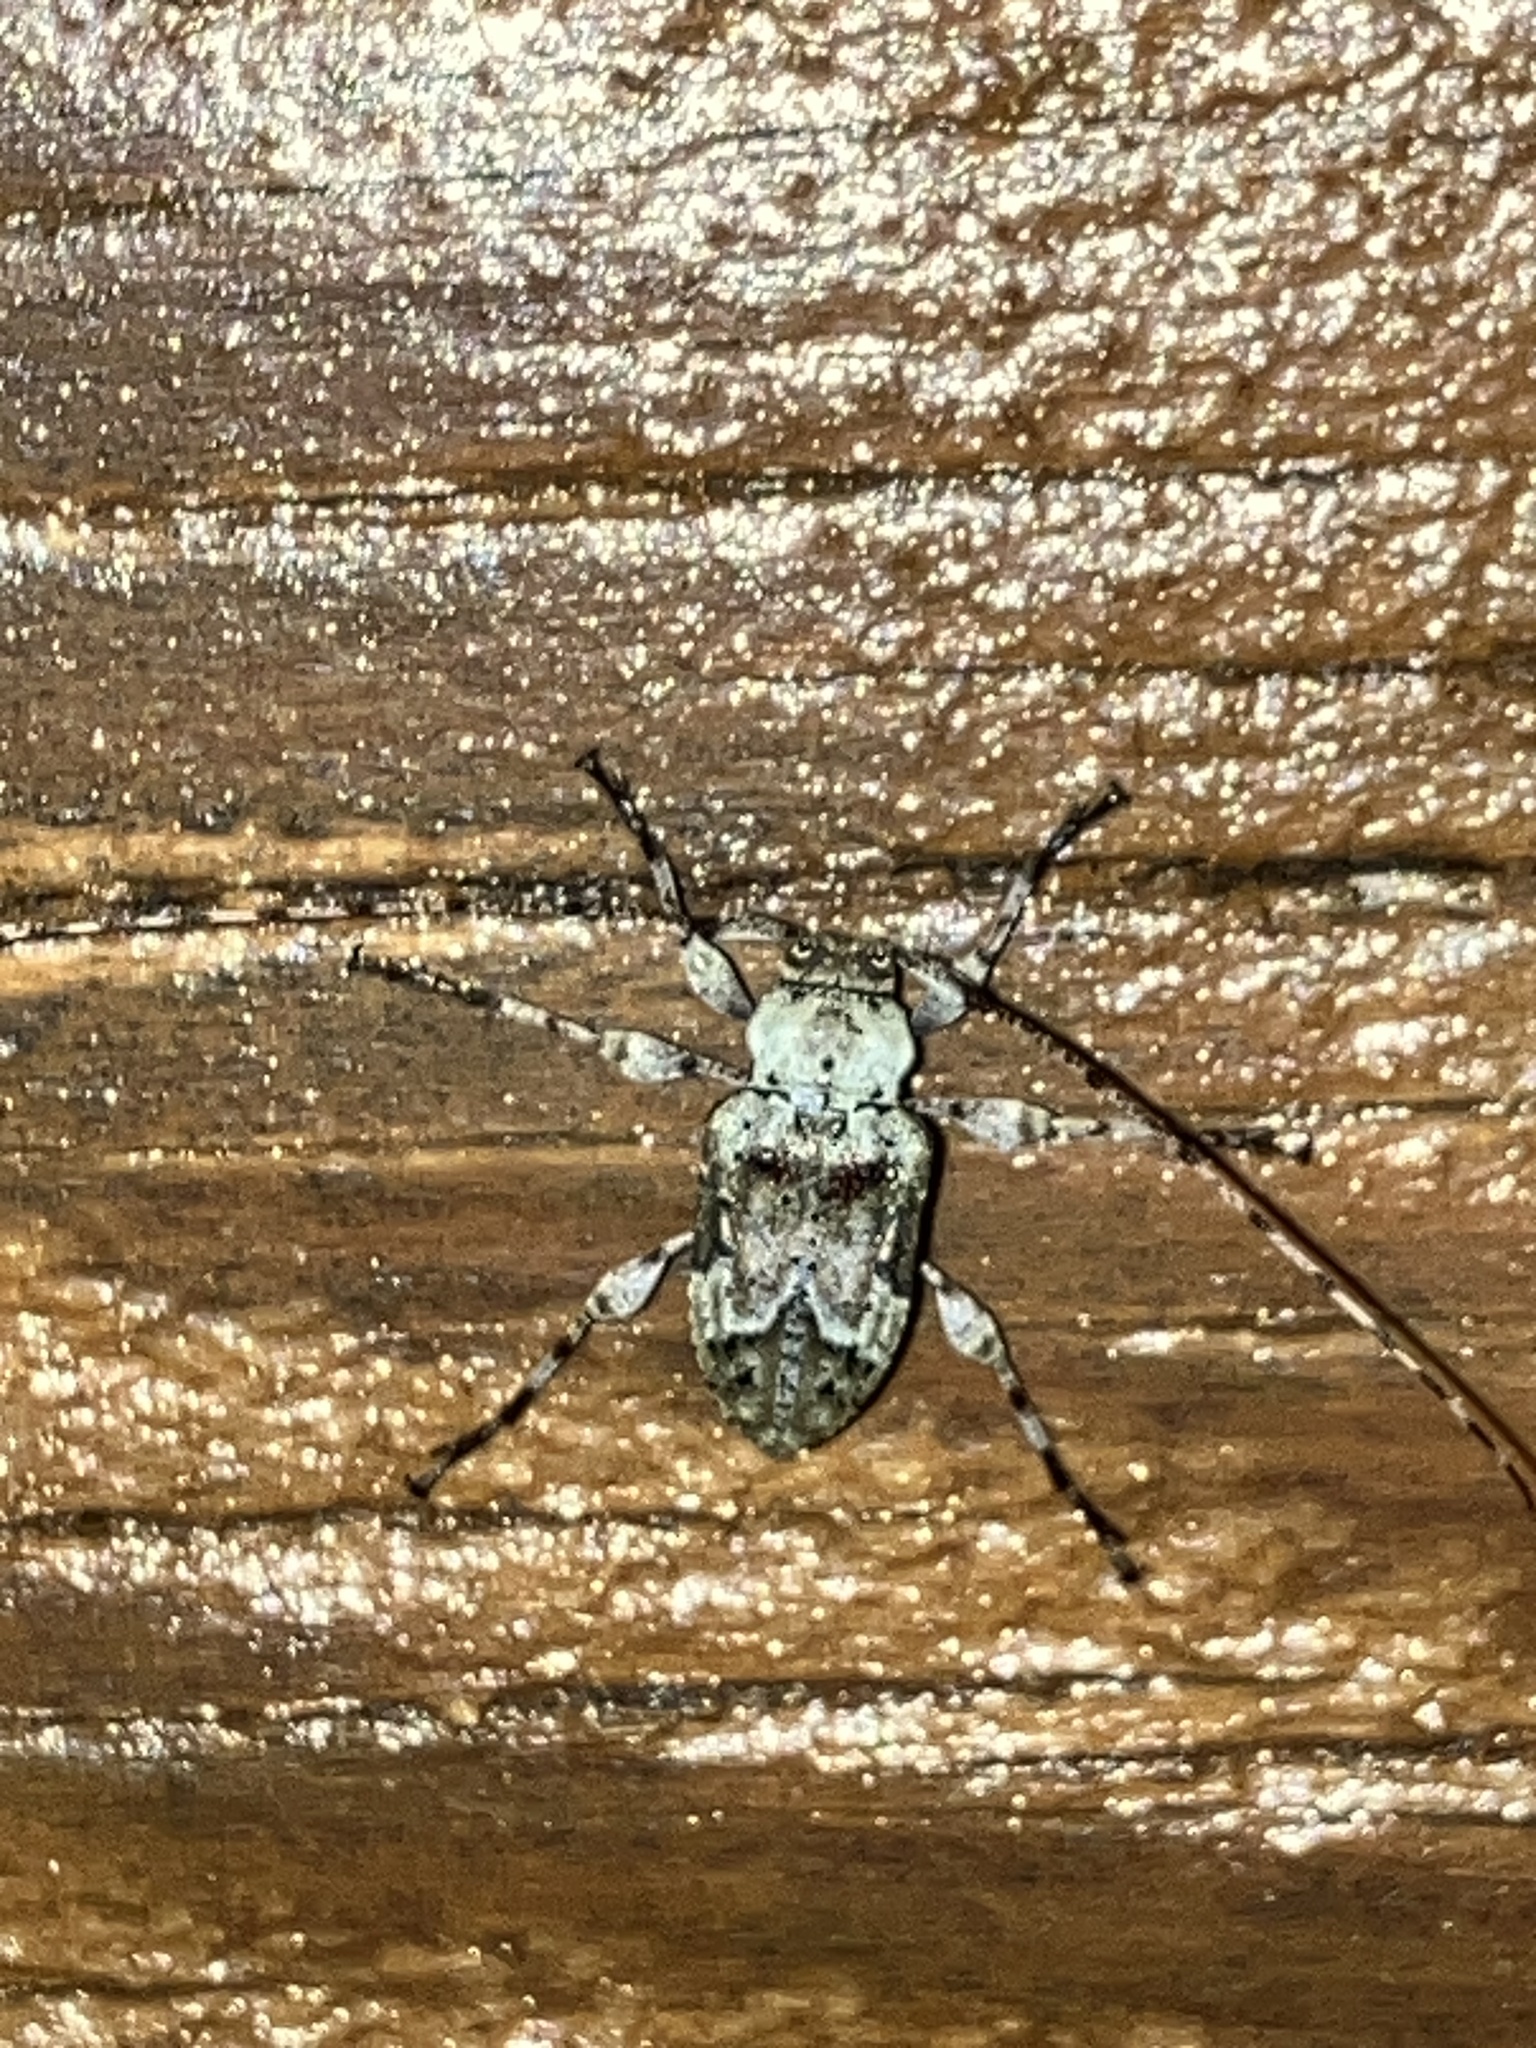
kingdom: Animalia
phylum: Arthropoda
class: Insecta
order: Coleoptera
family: Cerambycidae
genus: Leptostylopsis
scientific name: Leptostylopsis planidorsus
